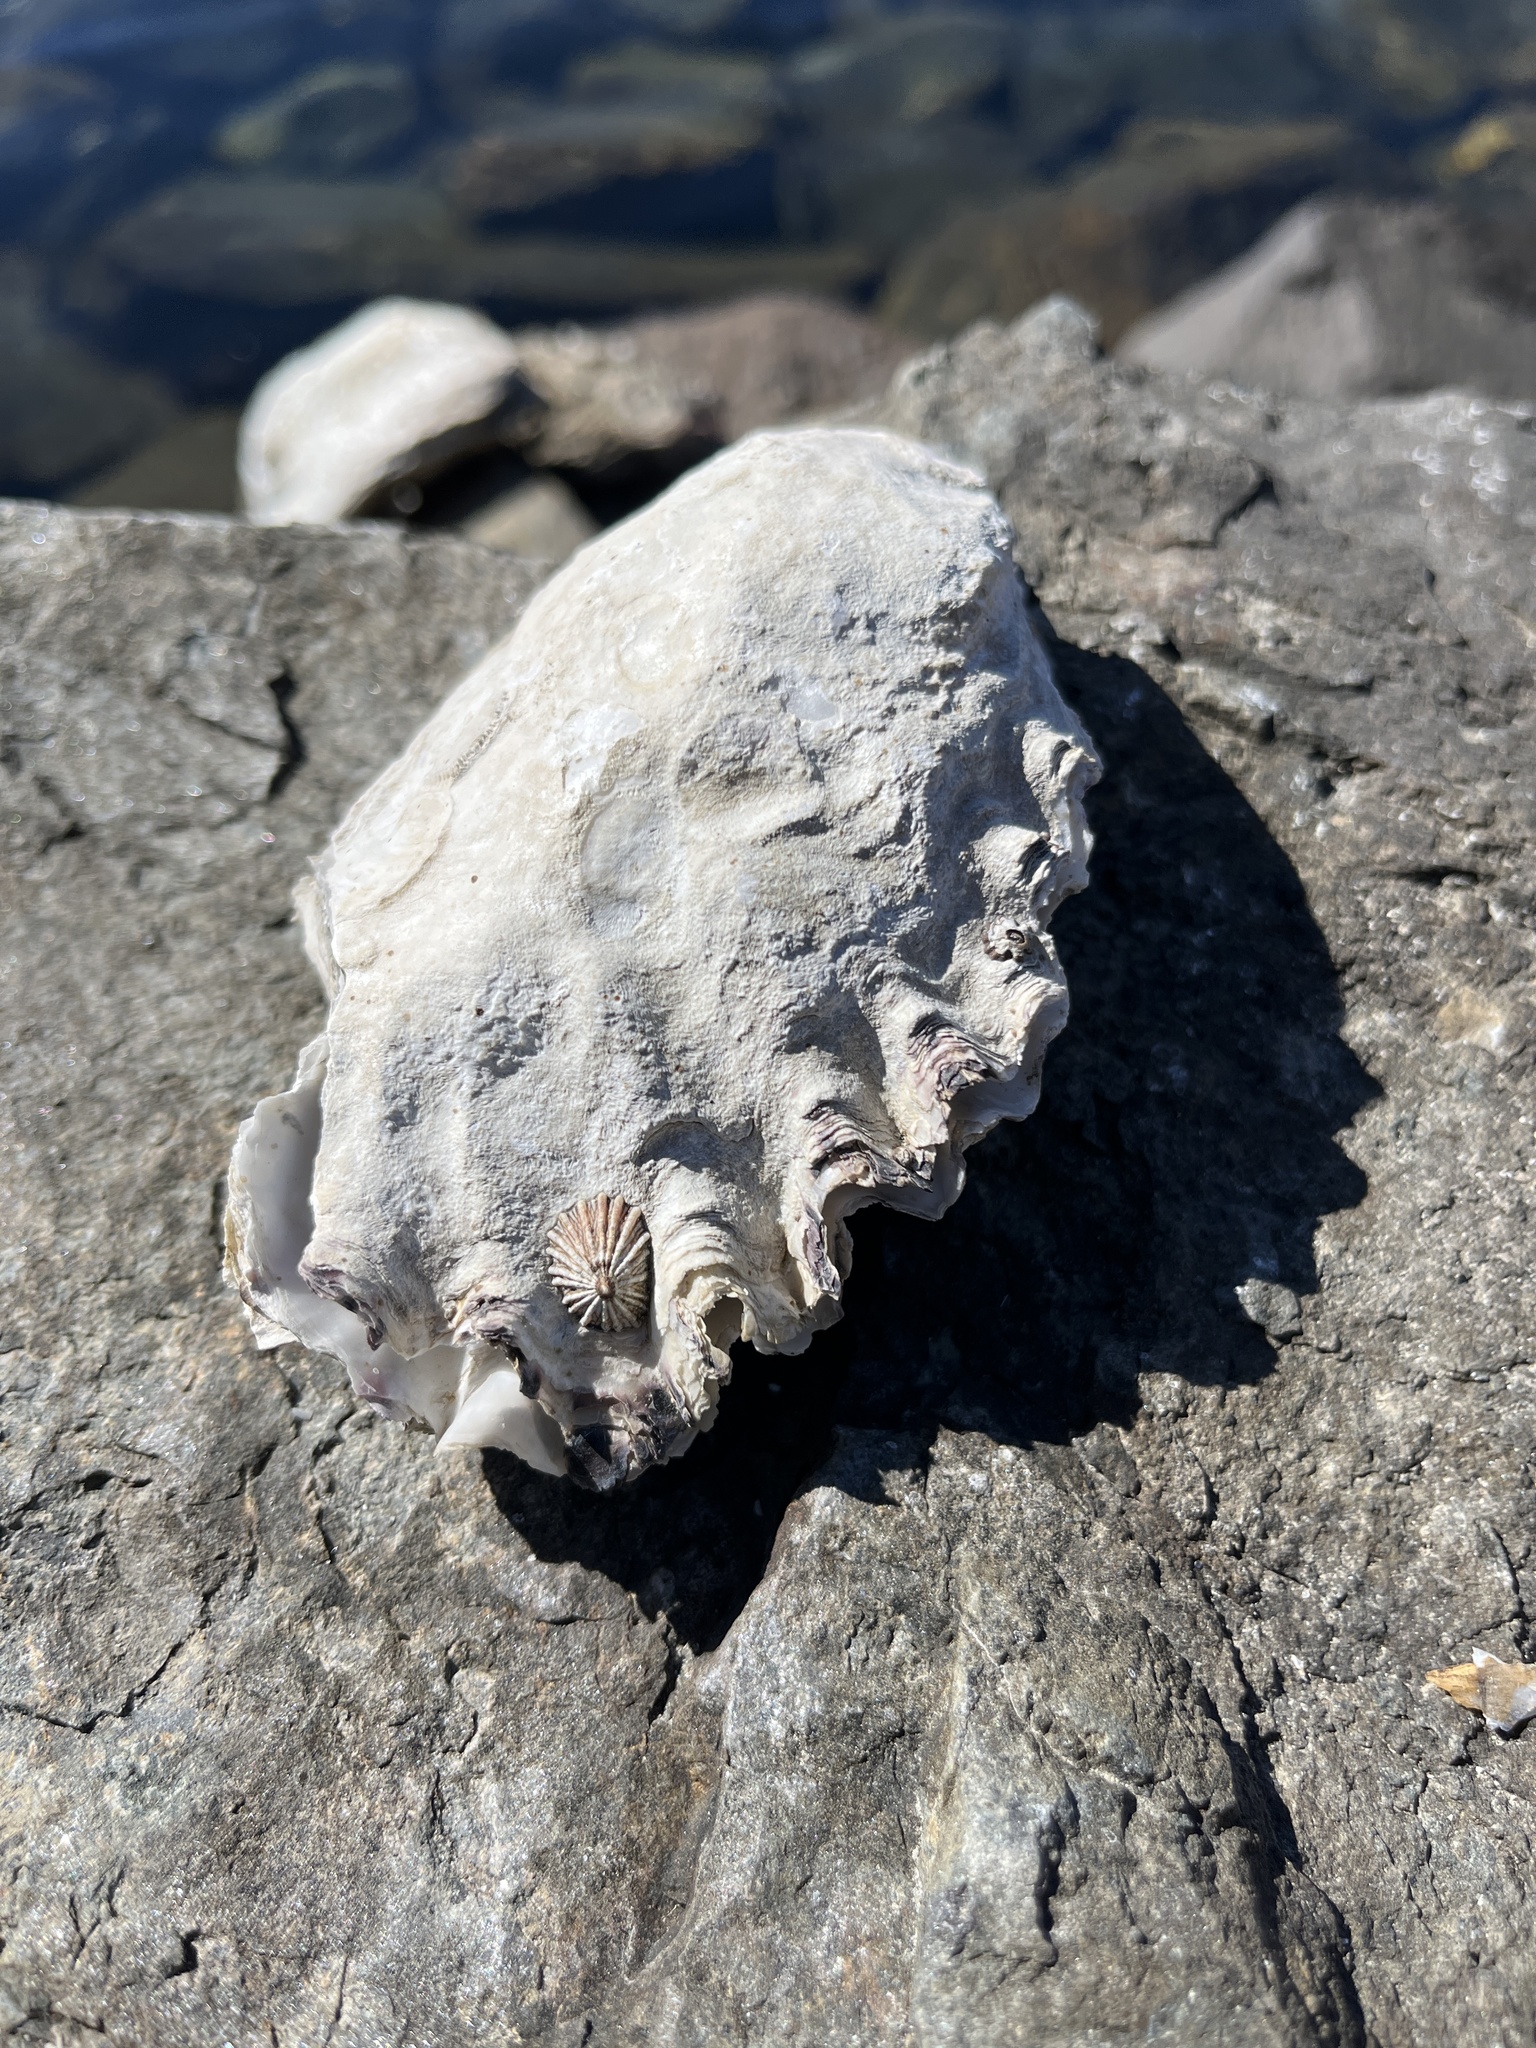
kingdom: Animalia
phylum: Mollusca
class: Bivalvia
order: Ostreida
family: Ostreidae
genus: Magallana
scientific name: Magallana gigas
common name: Pacific oyster
